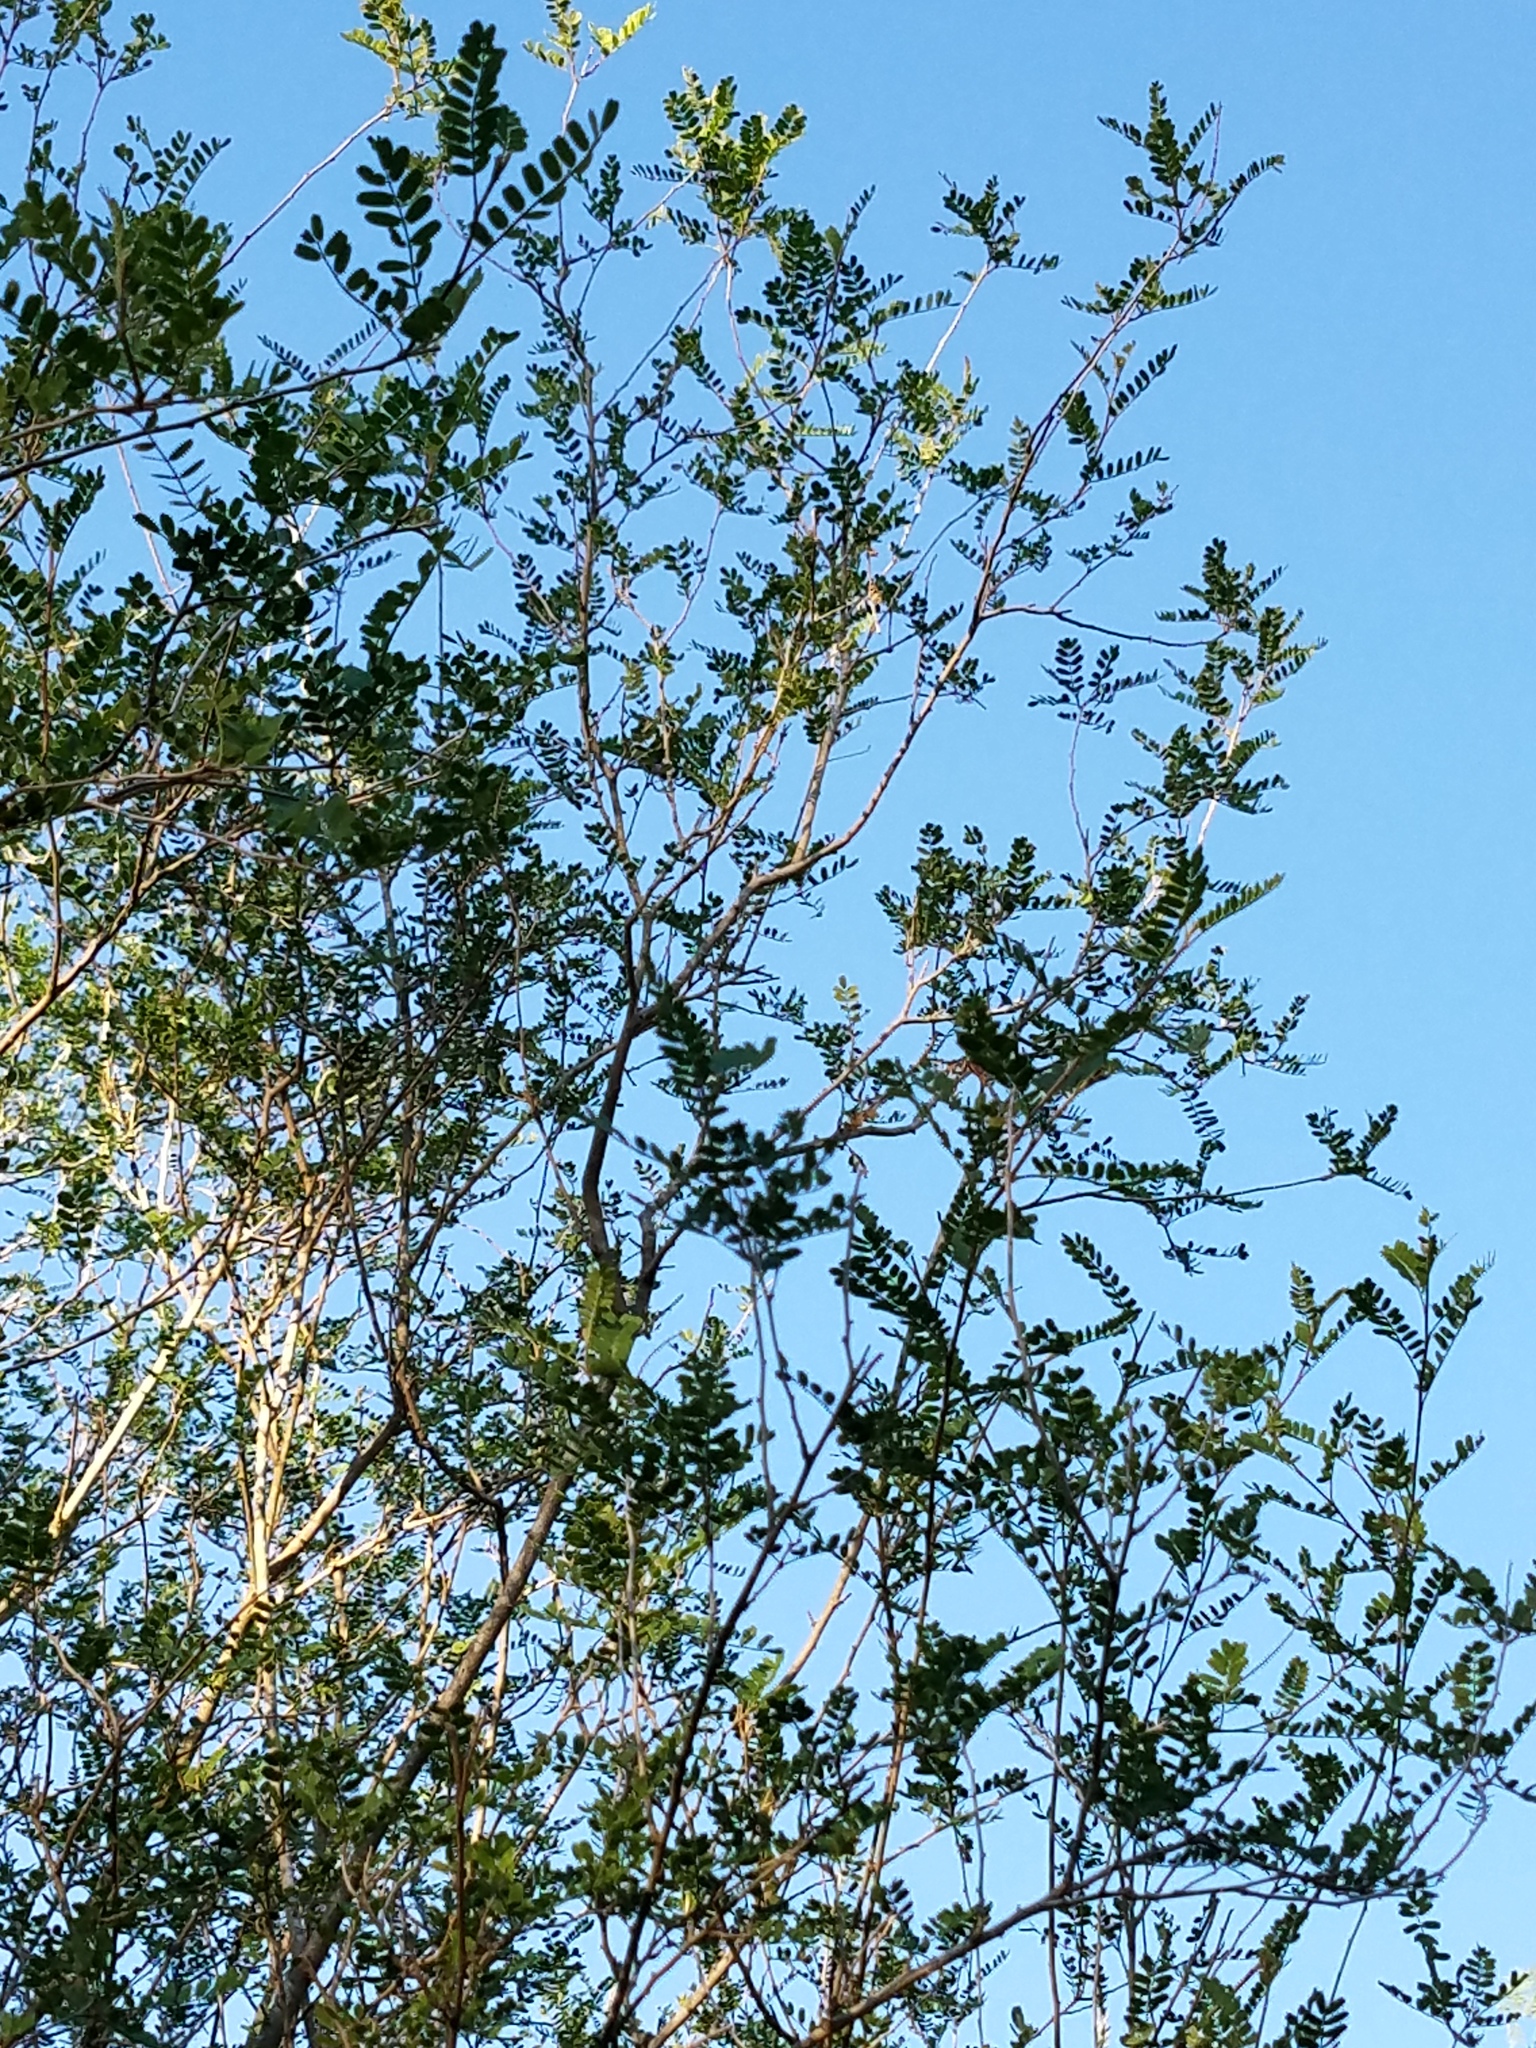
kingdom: Plantae
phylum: Tracheophyta
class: Magnoliopsida
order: Fabales
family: Fabaceae
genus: Eysenhardtia
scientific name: Eysenhardtia texana
